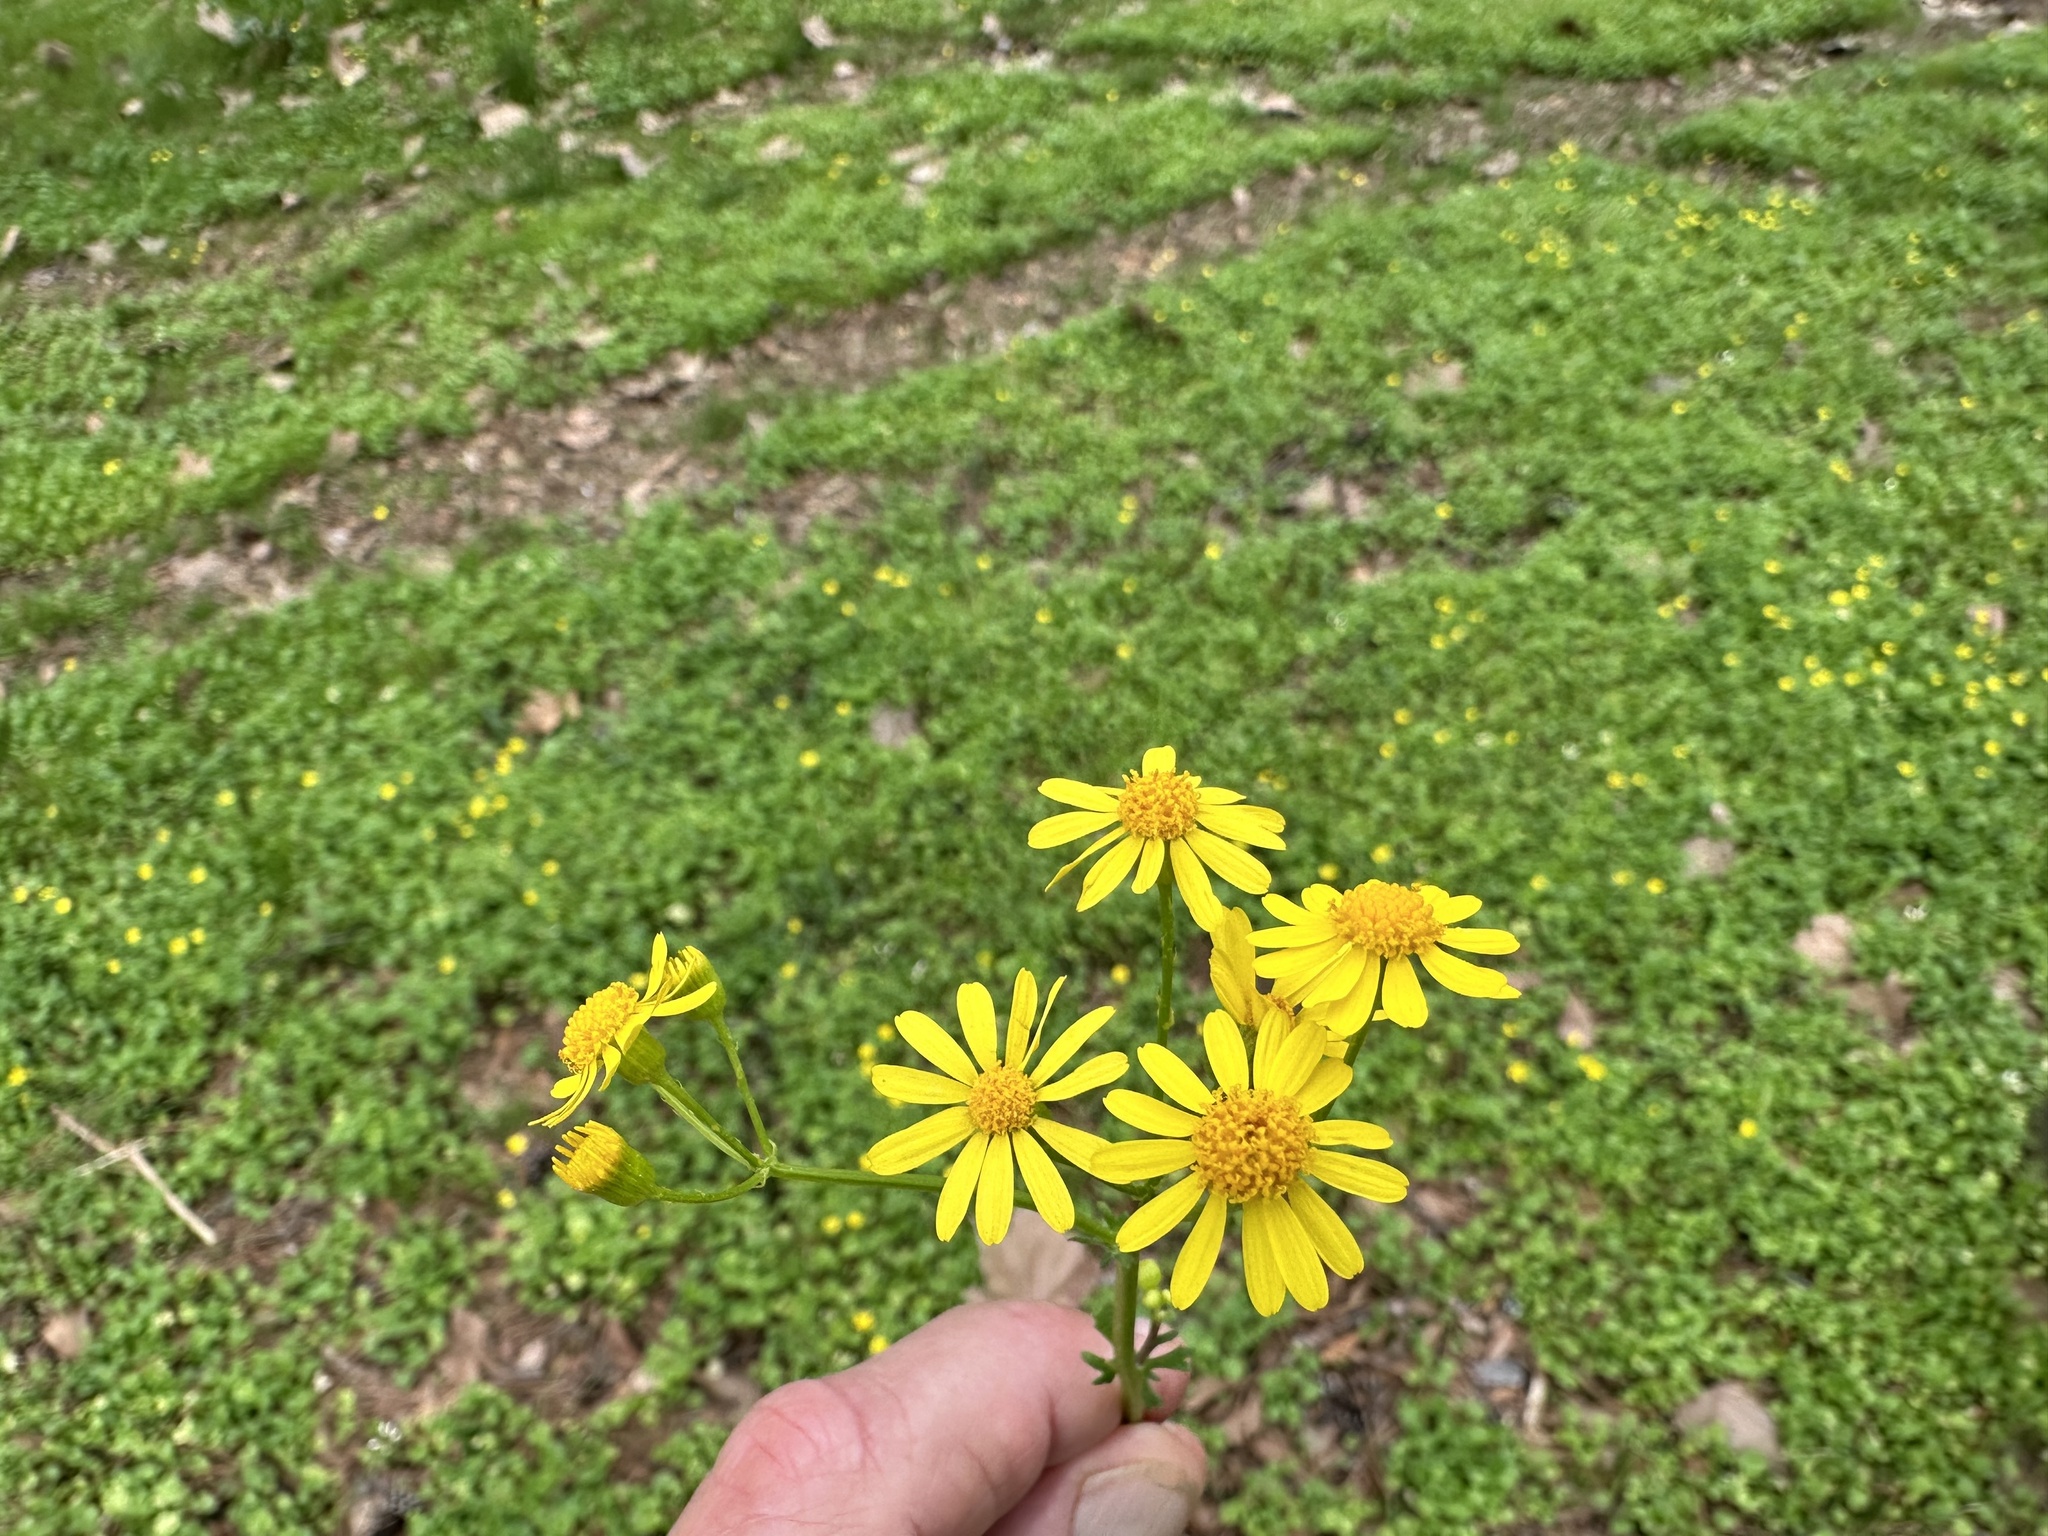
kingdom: Plantae
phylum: Tracheophyta
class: Magnoliopsida
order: Asterales
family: Asteraceae
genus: Packera
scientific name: Packera glabella
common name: Butterweed
